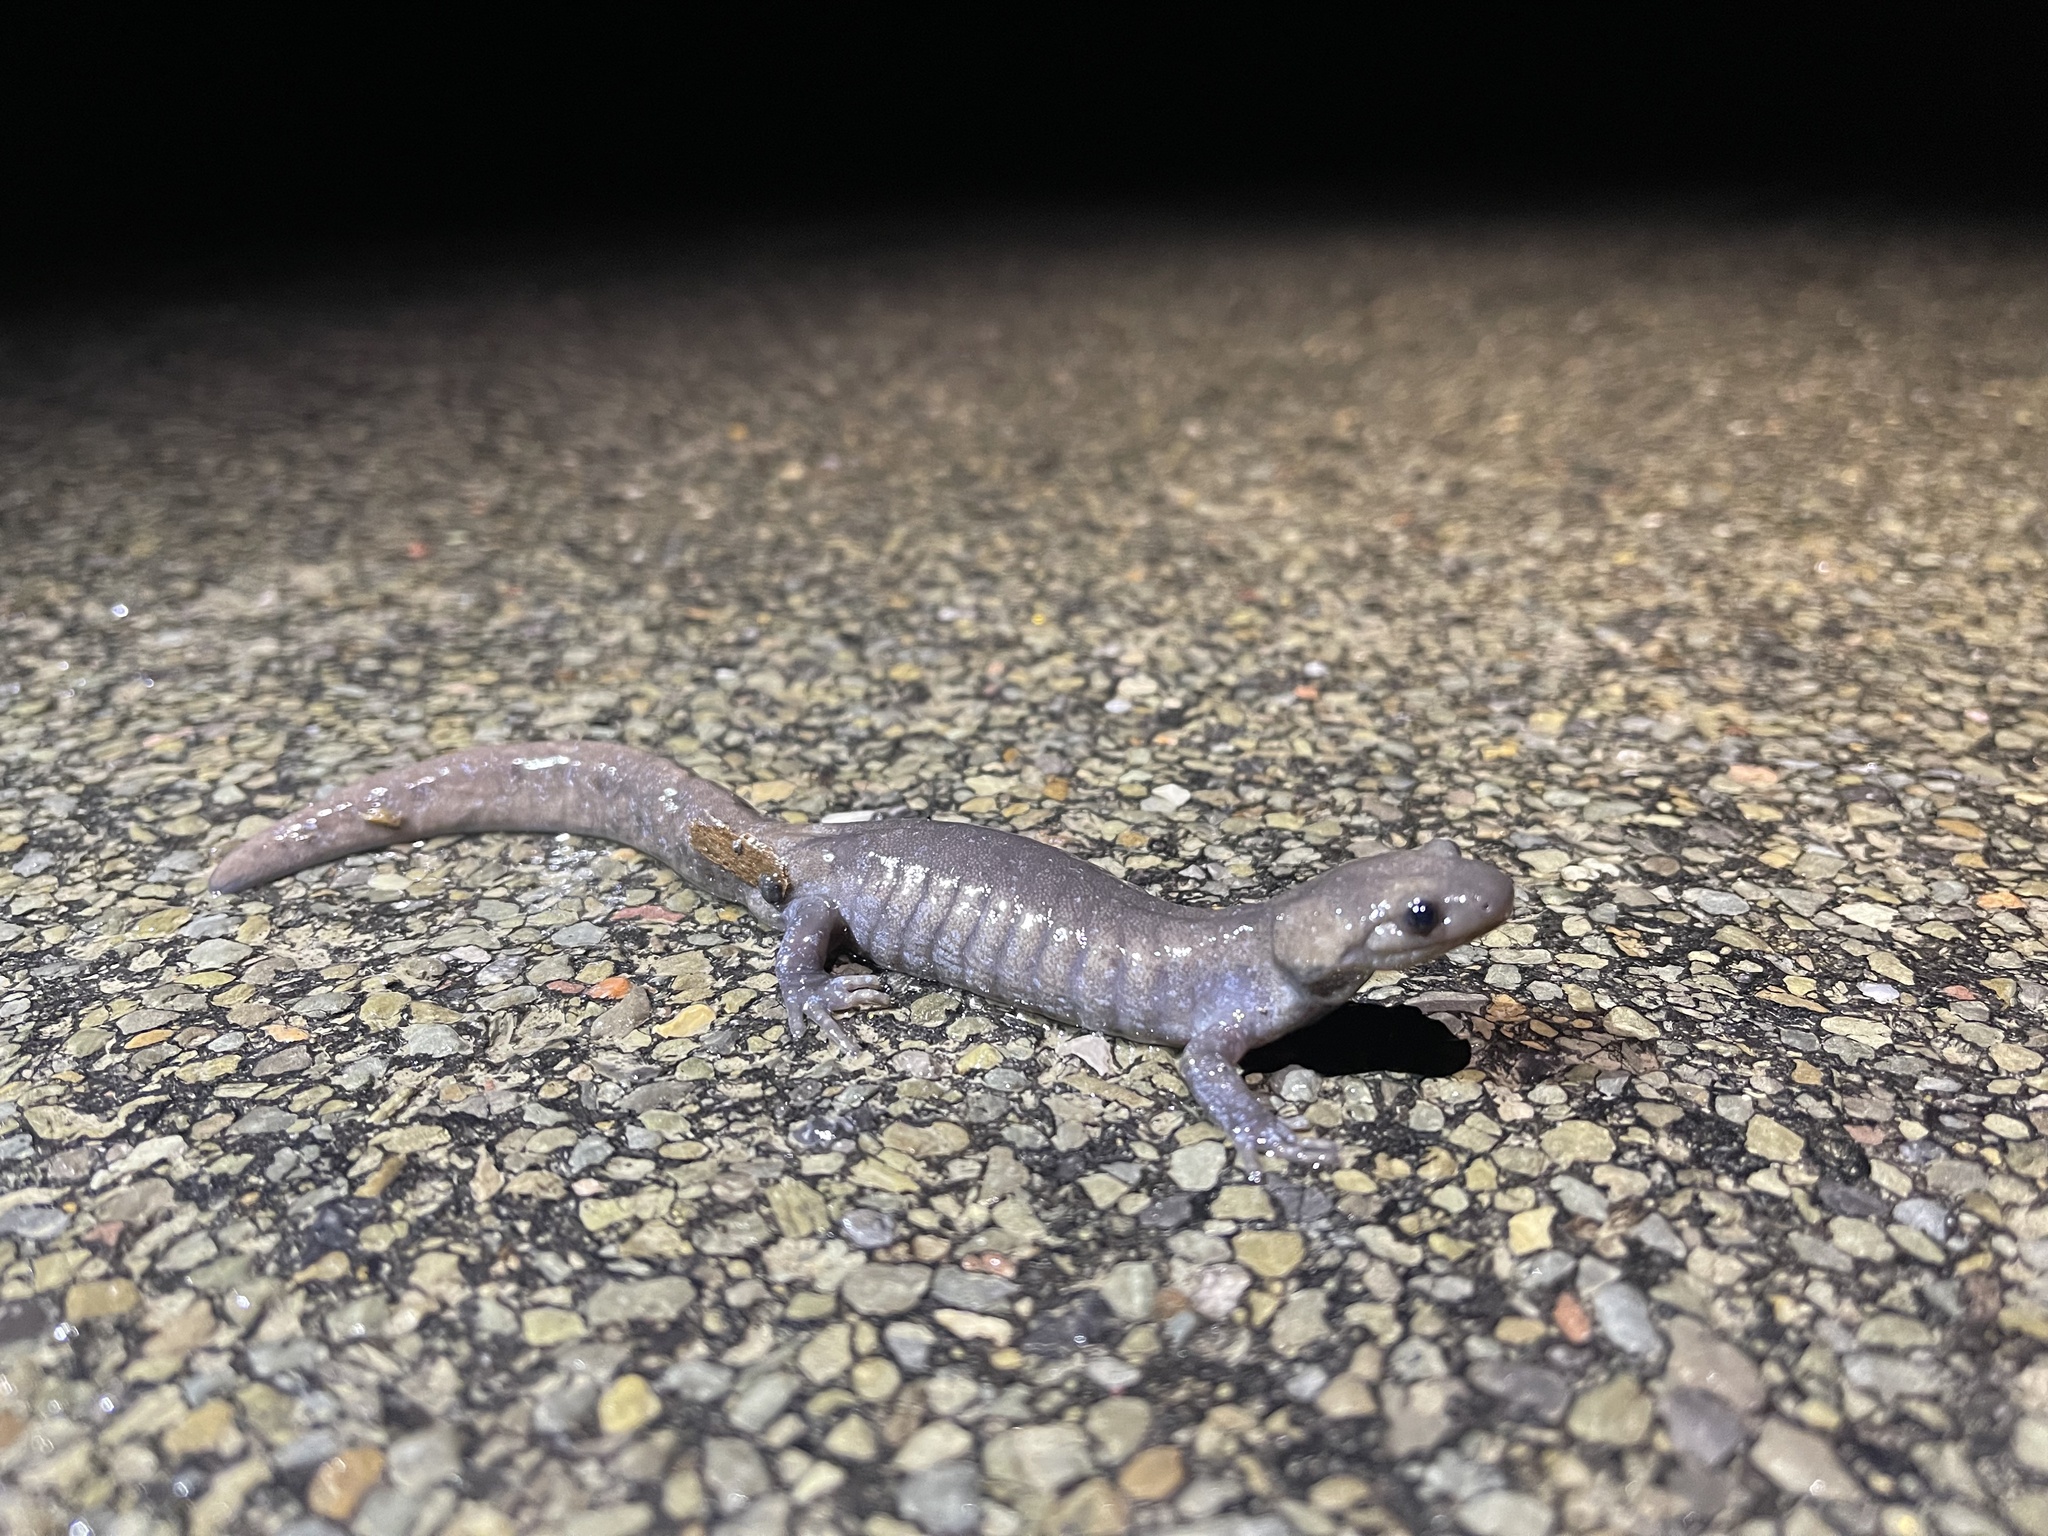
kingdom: Animalia
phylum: Chordata
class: Amphibia
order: Caudata
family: Ambystomatidae
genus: Ambystoma
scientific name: Ambystoma jeffersonianum
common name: Jefferson salamander
